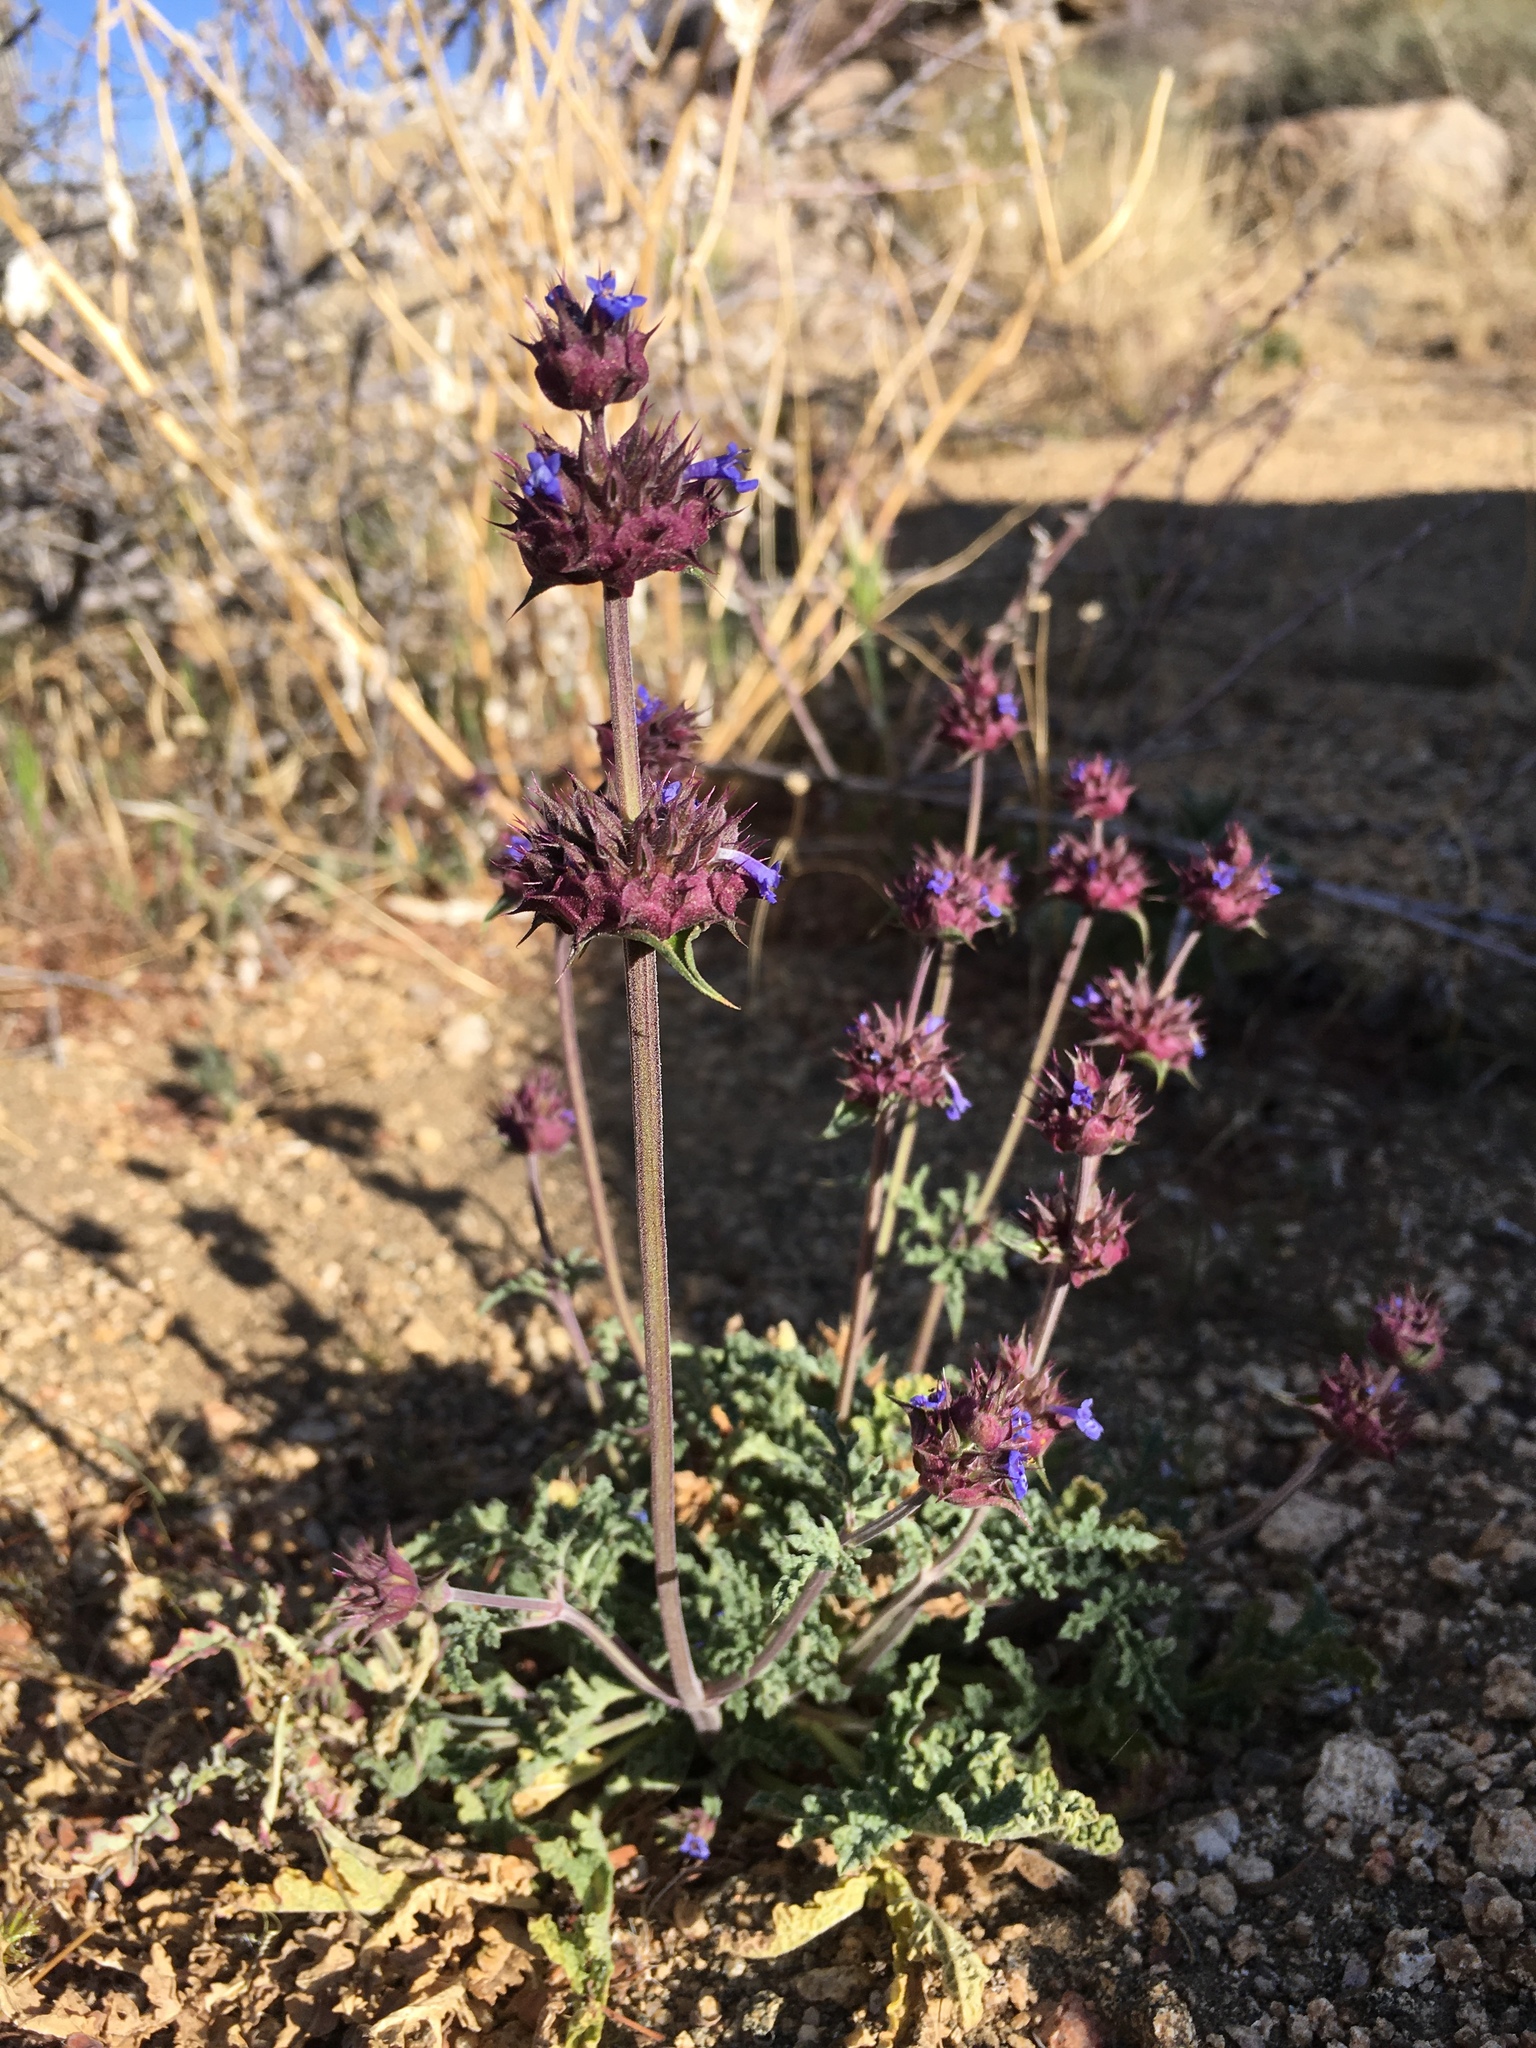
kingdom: Plantae
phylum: Tracheophyta
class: Magnoliopsida
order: Lamiales
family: Lamiaceae
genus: Salvia
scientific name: Salvia columbariae
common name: Chia
